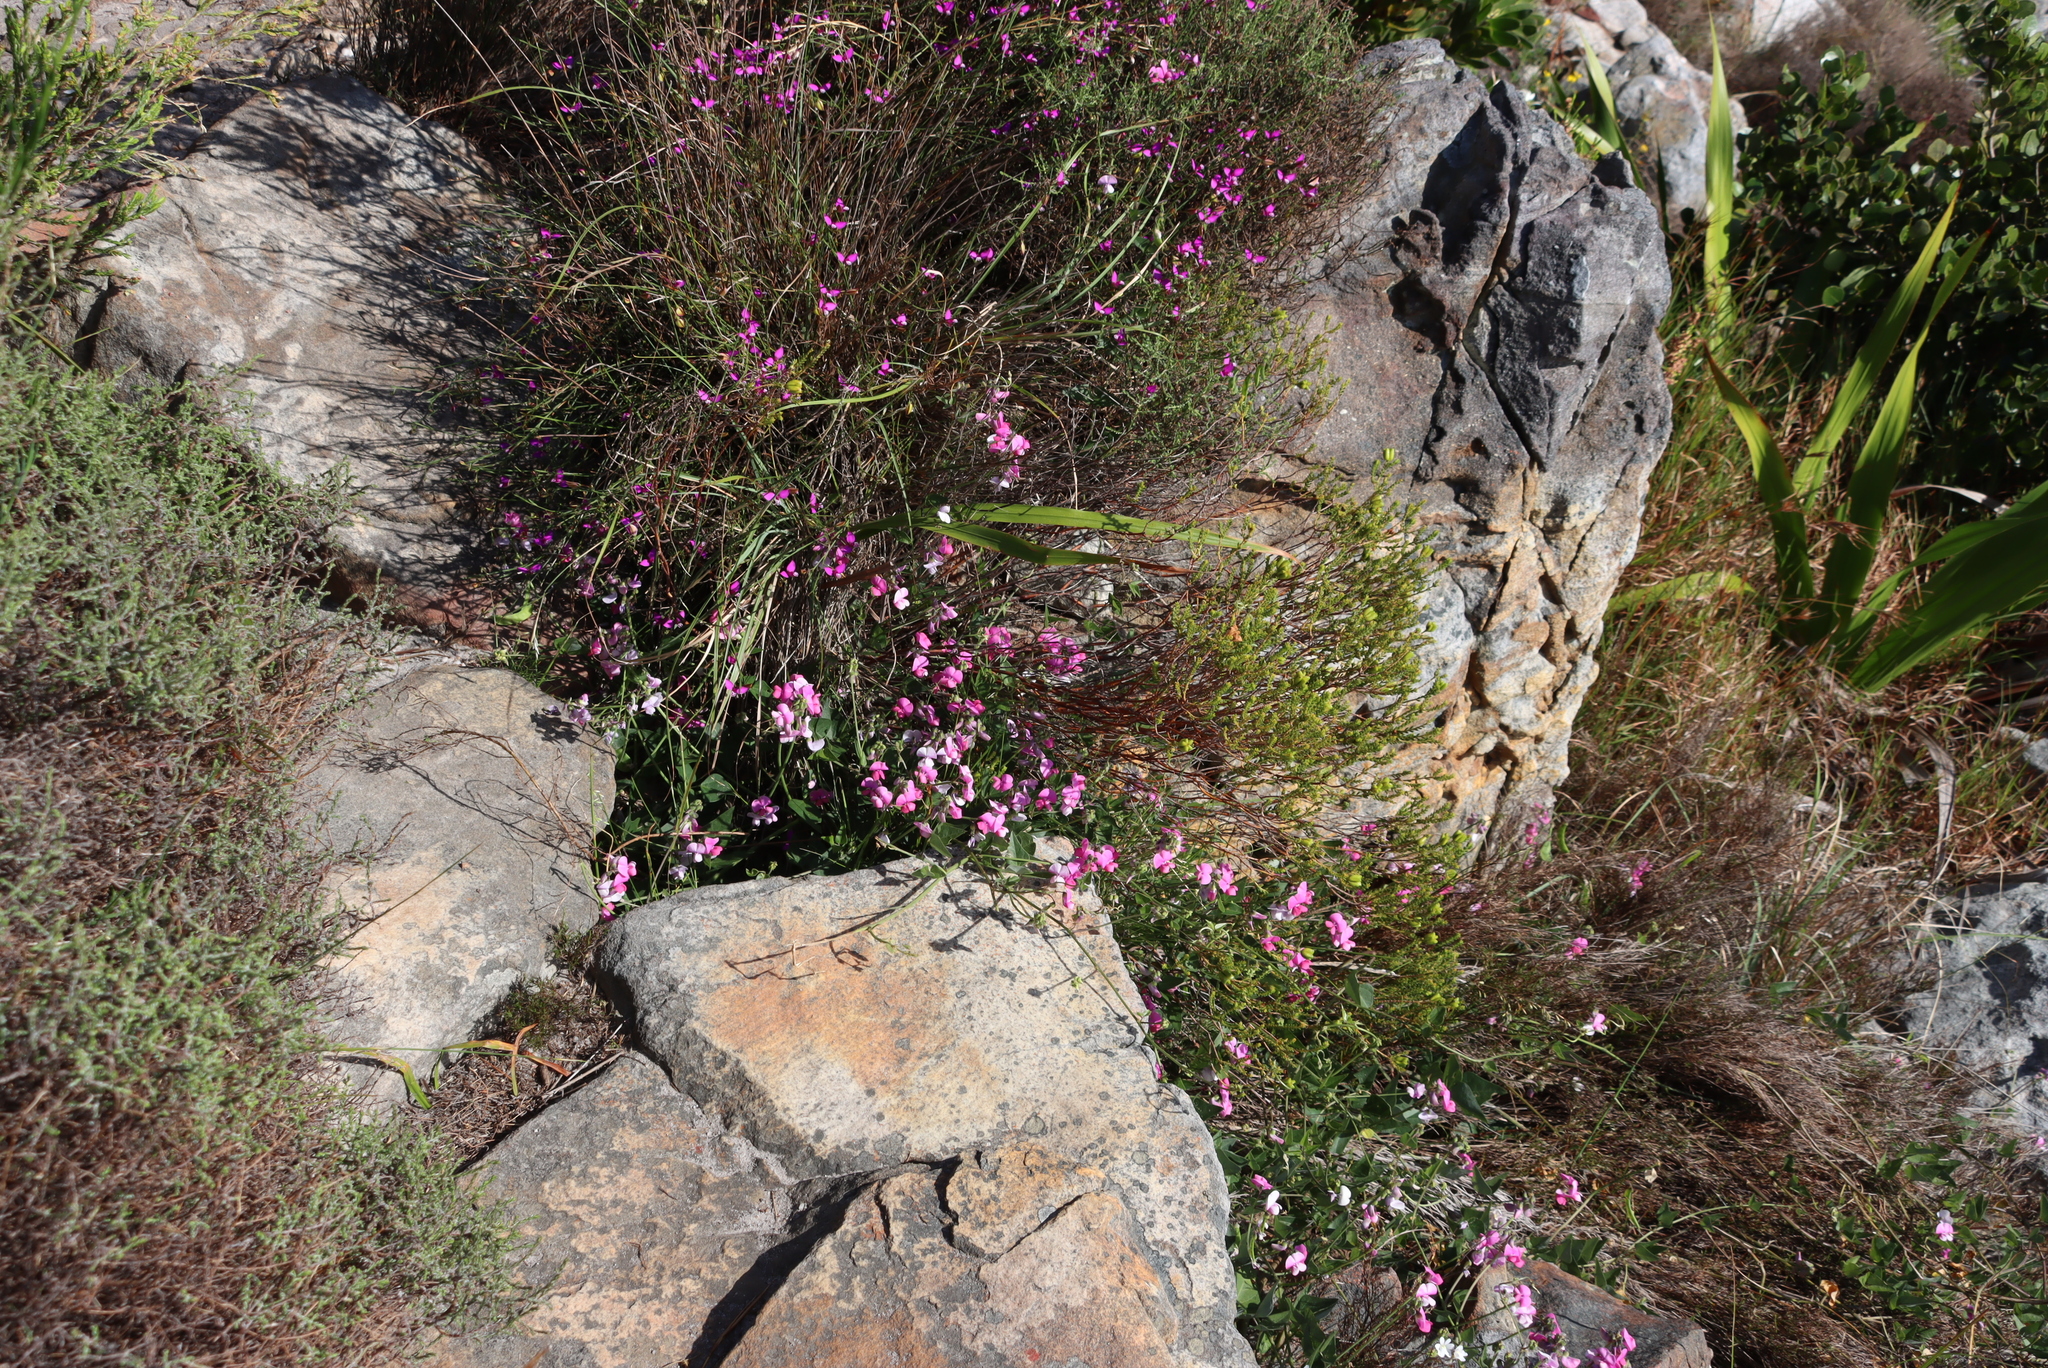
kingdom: Plantae
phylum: Tracheophyta
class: Magnoliopsida
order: Fabales
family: Fabaceae
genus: Dipogon
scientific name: Dipogon lignosus
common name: Okie bean
